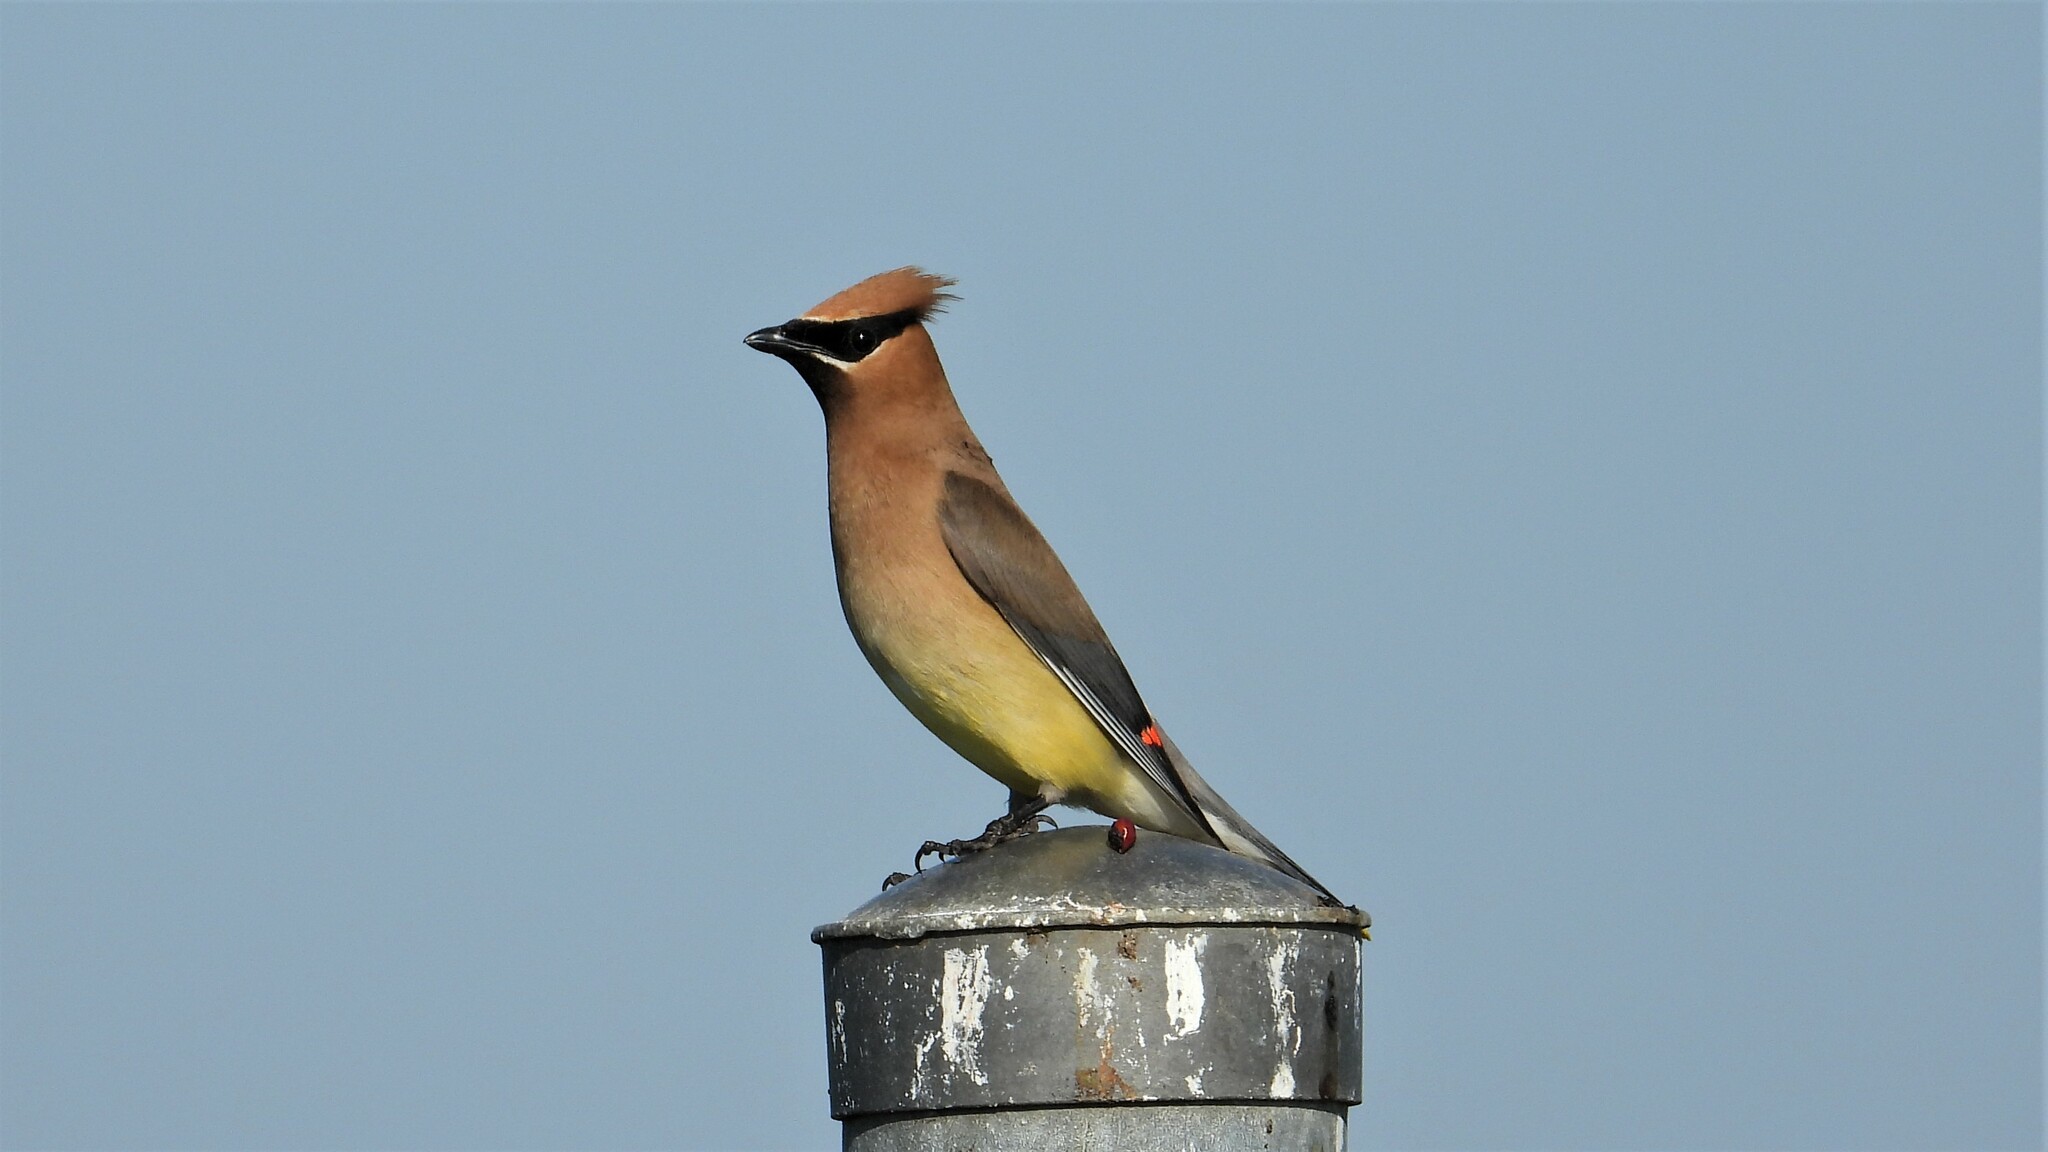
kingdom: Animalia
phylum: Chordata
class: Aves
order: Passeriformes
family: Bombycillidae
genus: Bombycilla
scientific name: Bombycilla cedrorum
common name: Cedar waxwing
